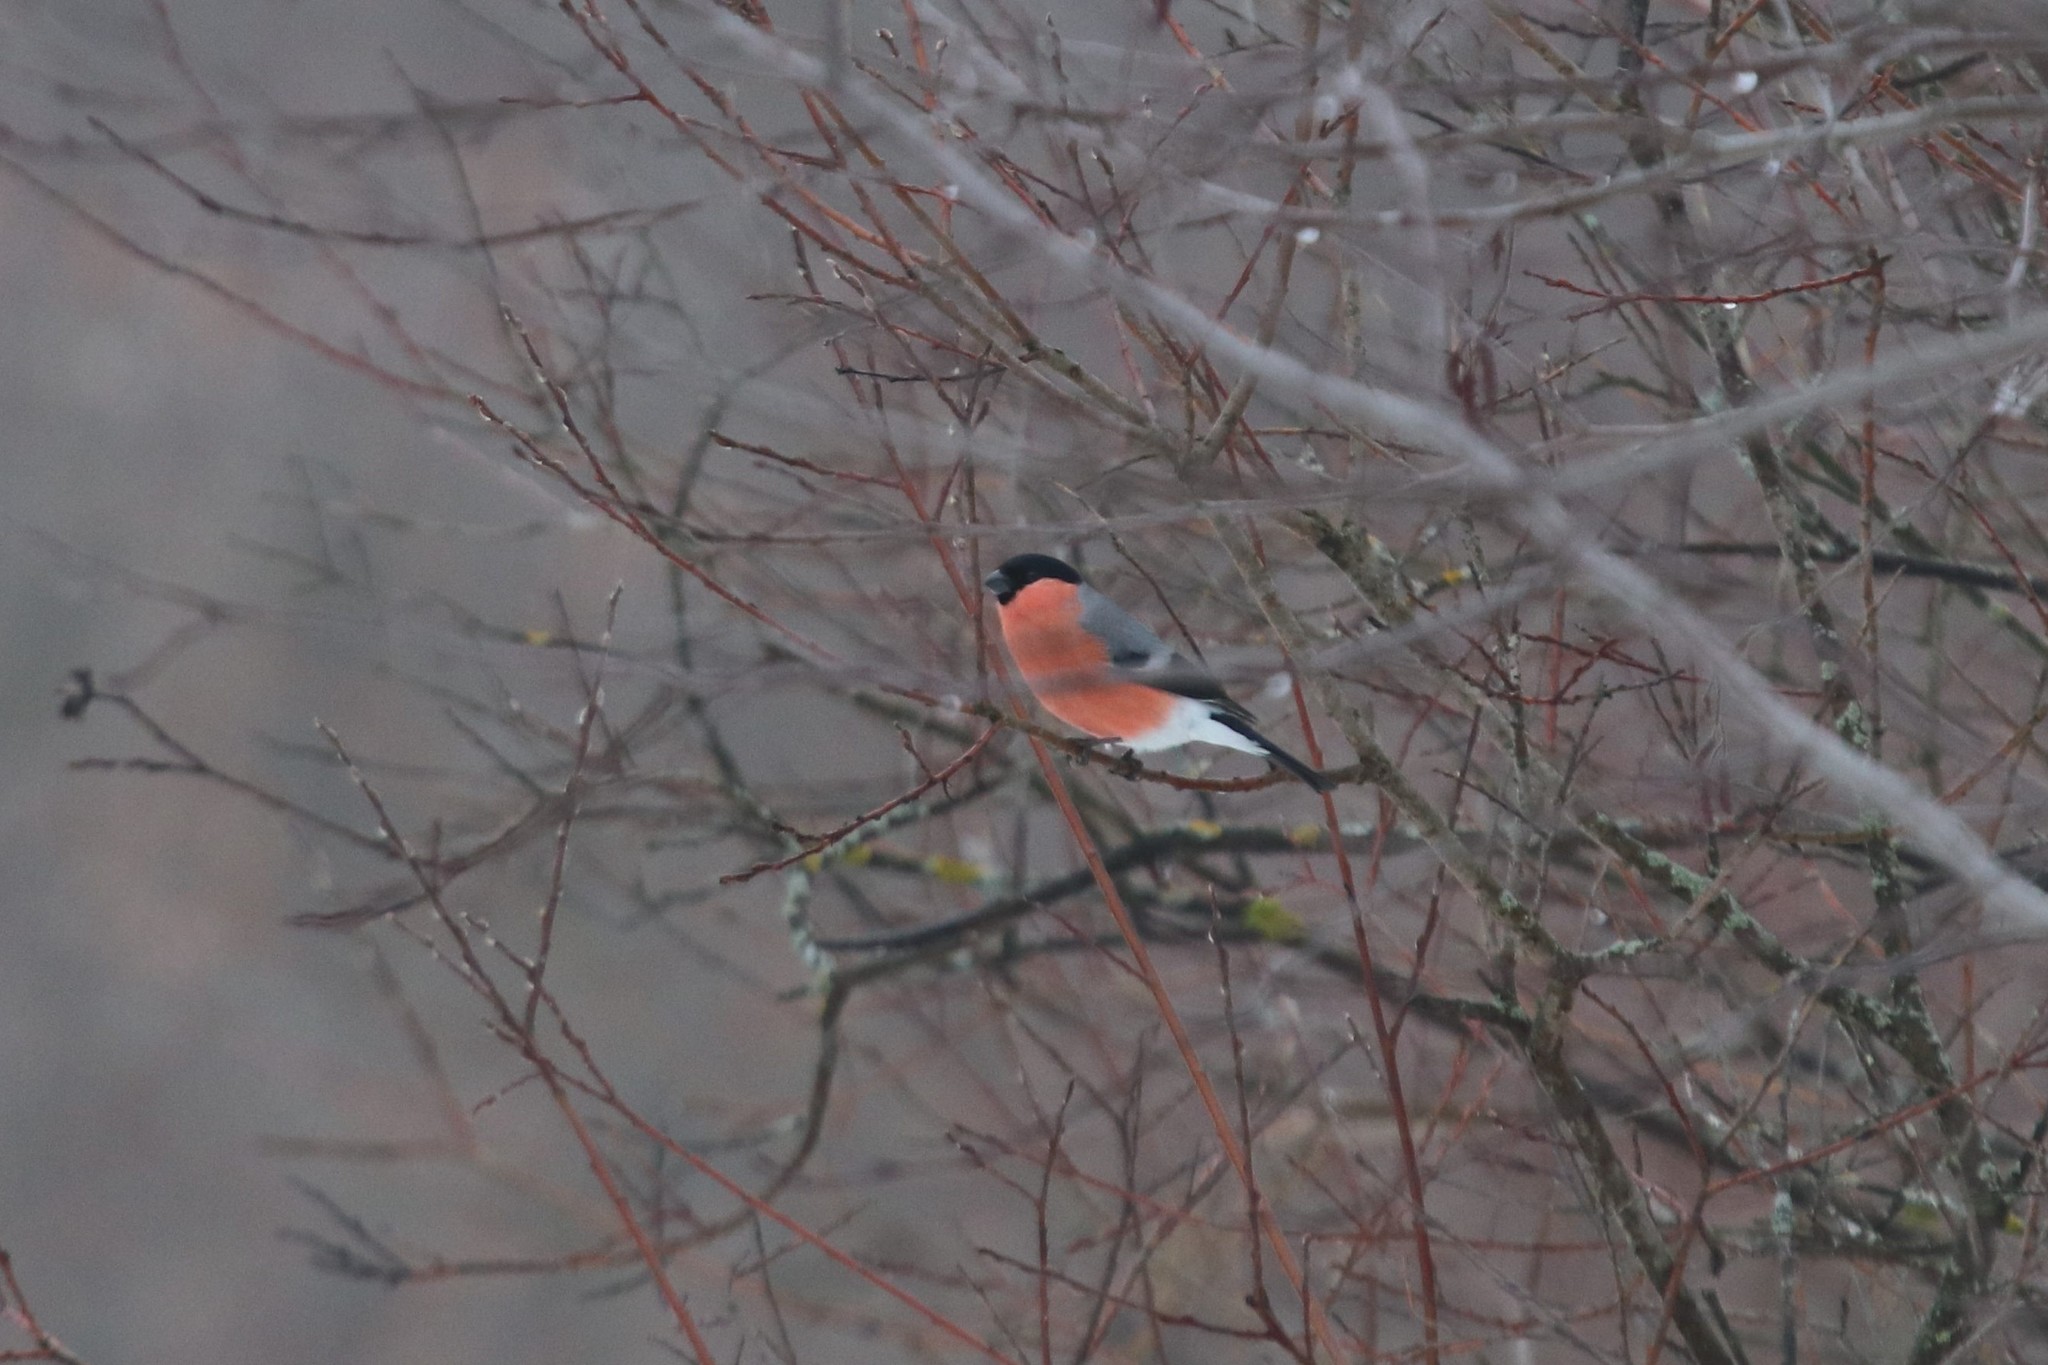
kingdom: Animalia
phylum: Chordata
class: Aves
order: Passeriformes
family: Fringillidae
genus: Pyrrhula
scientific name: Pyrrhula pyrrhula
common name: Eurasian bullfinch
